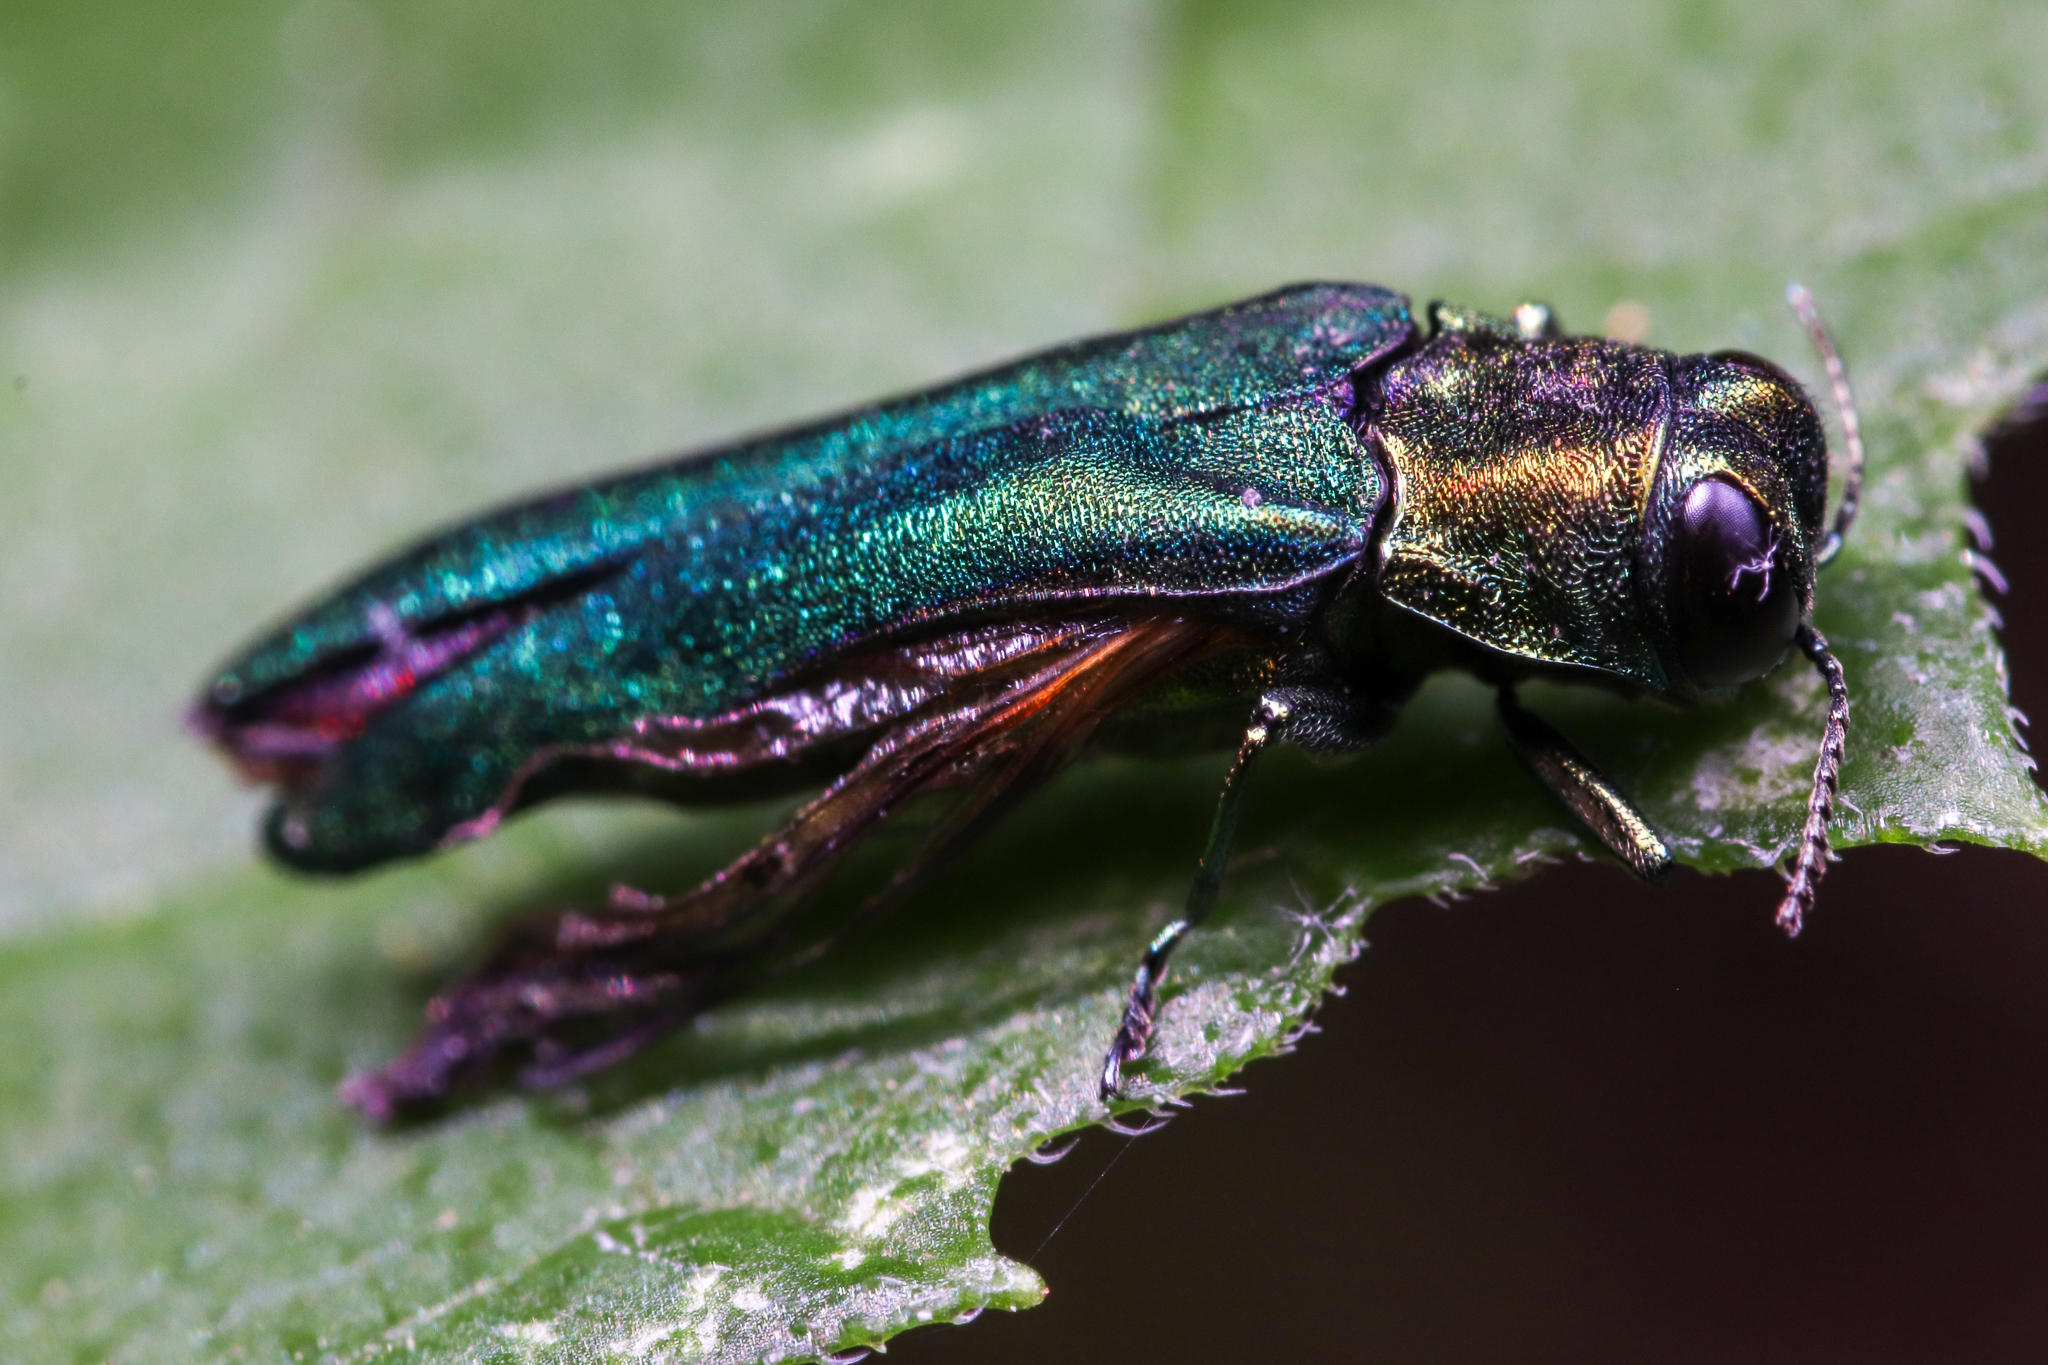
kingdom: Animalia
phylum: Arthropoda
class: Insecta
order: Coleoptera
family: Buprestidae
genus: Agrilus
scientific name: Agrilus planipennis
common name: Emerald ash borer
